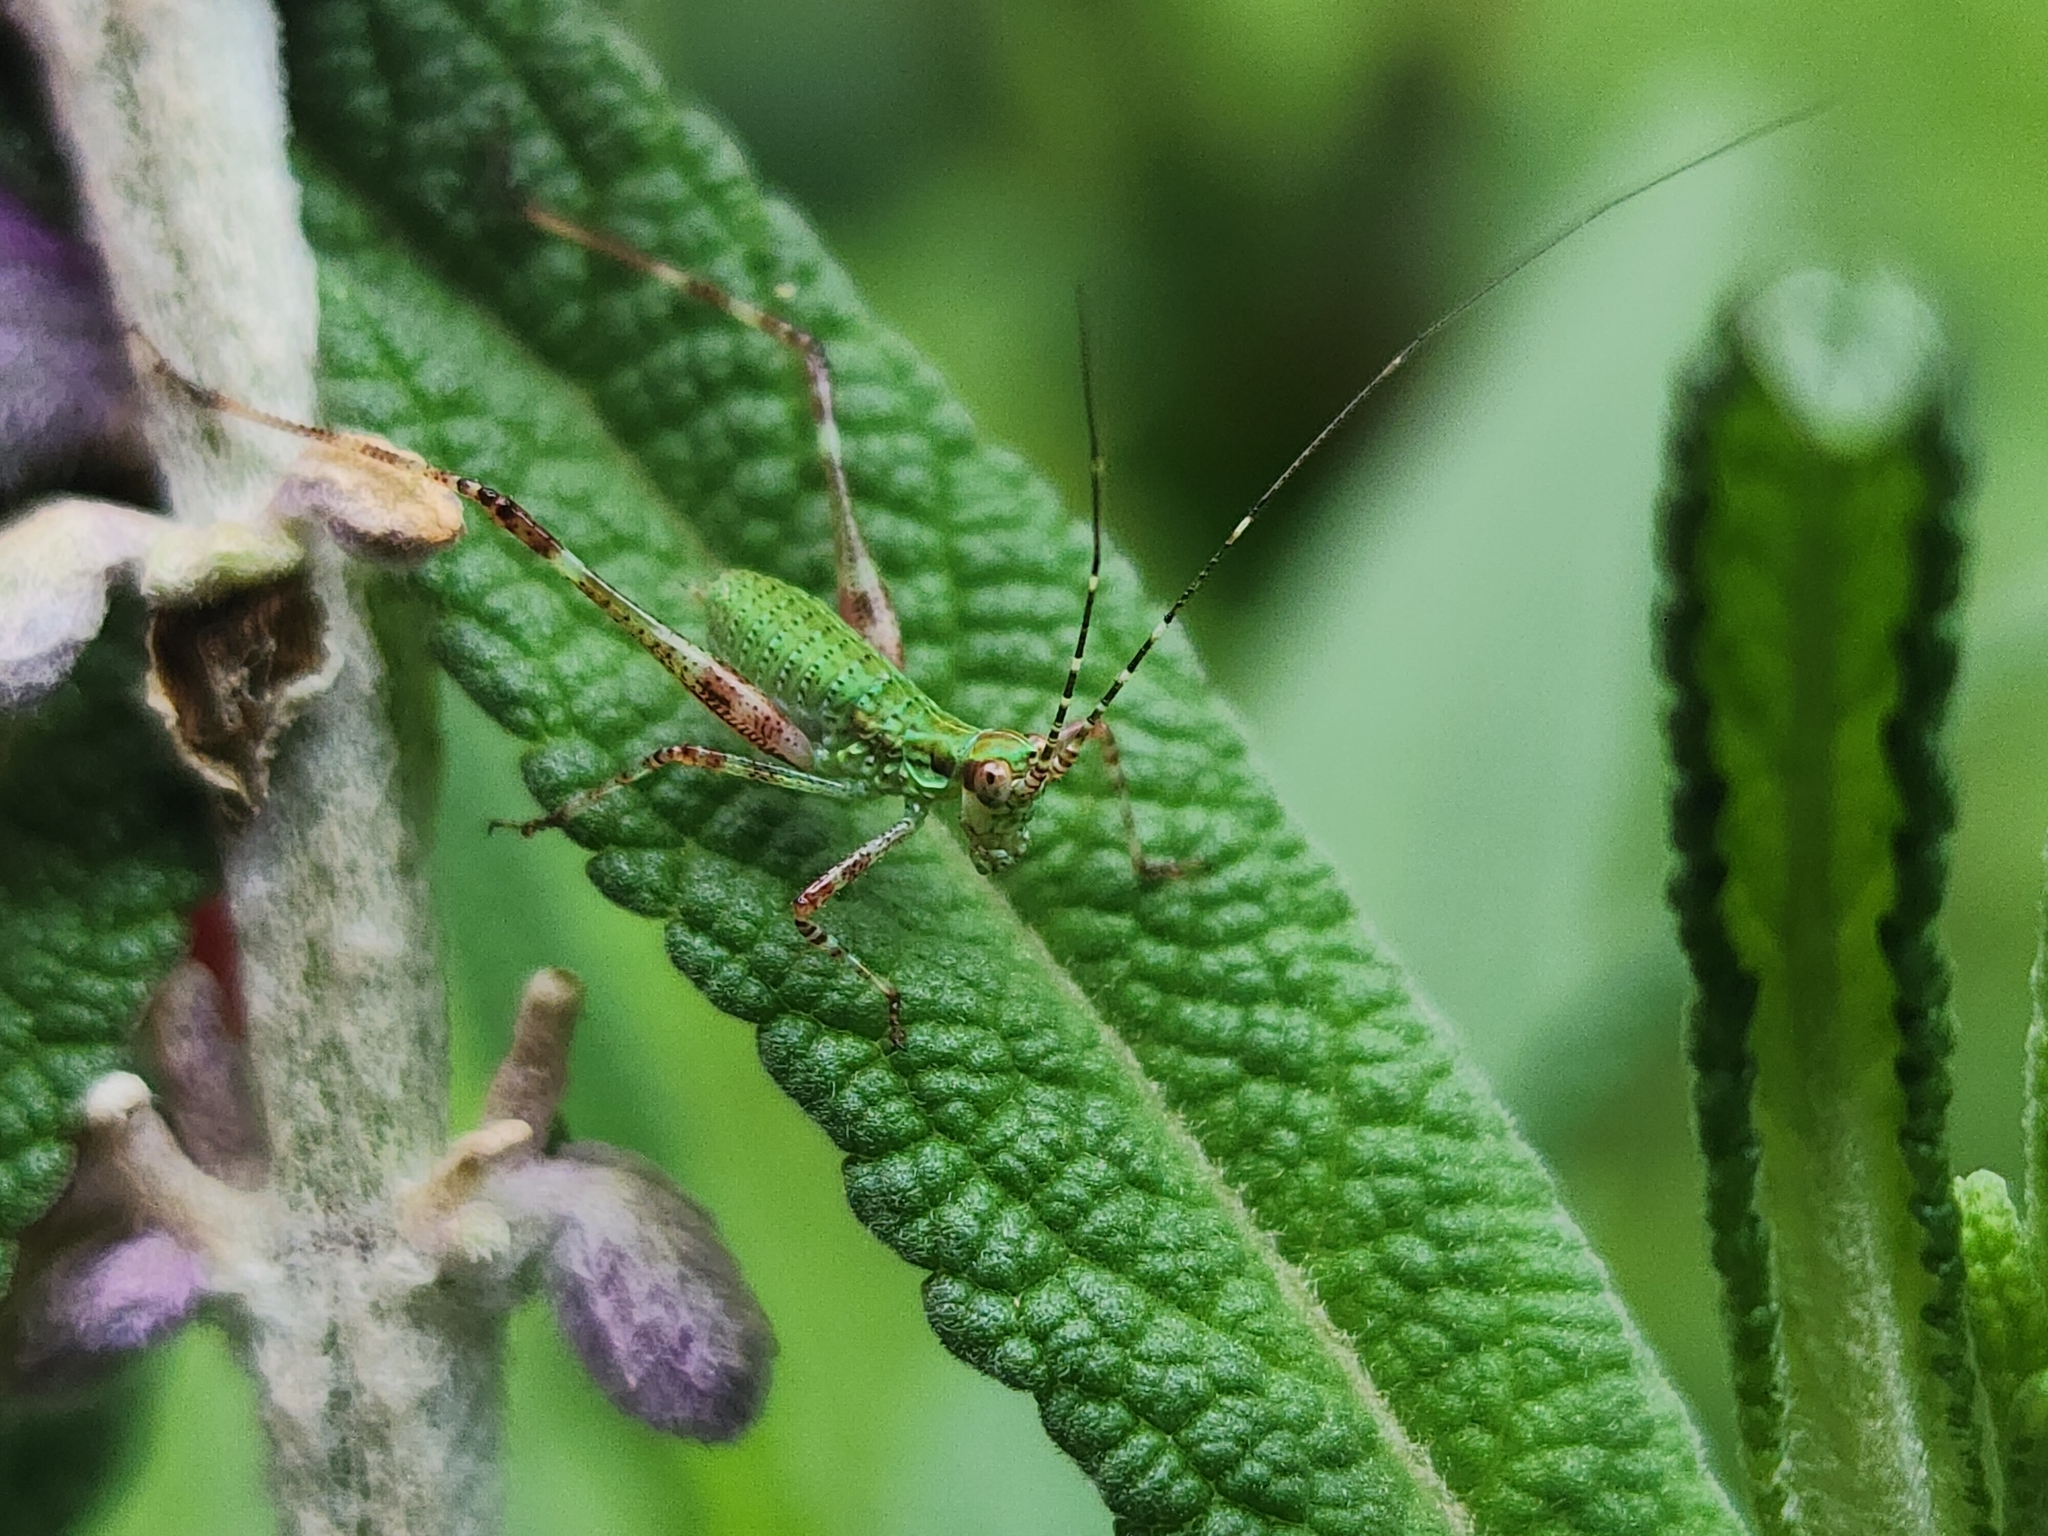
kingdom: Animalia
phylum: Arthropoda
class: Insecta
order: Orthoptera
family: Tettigoniidae
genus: Ligocatinus
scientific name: Ligocatinus spinatus
